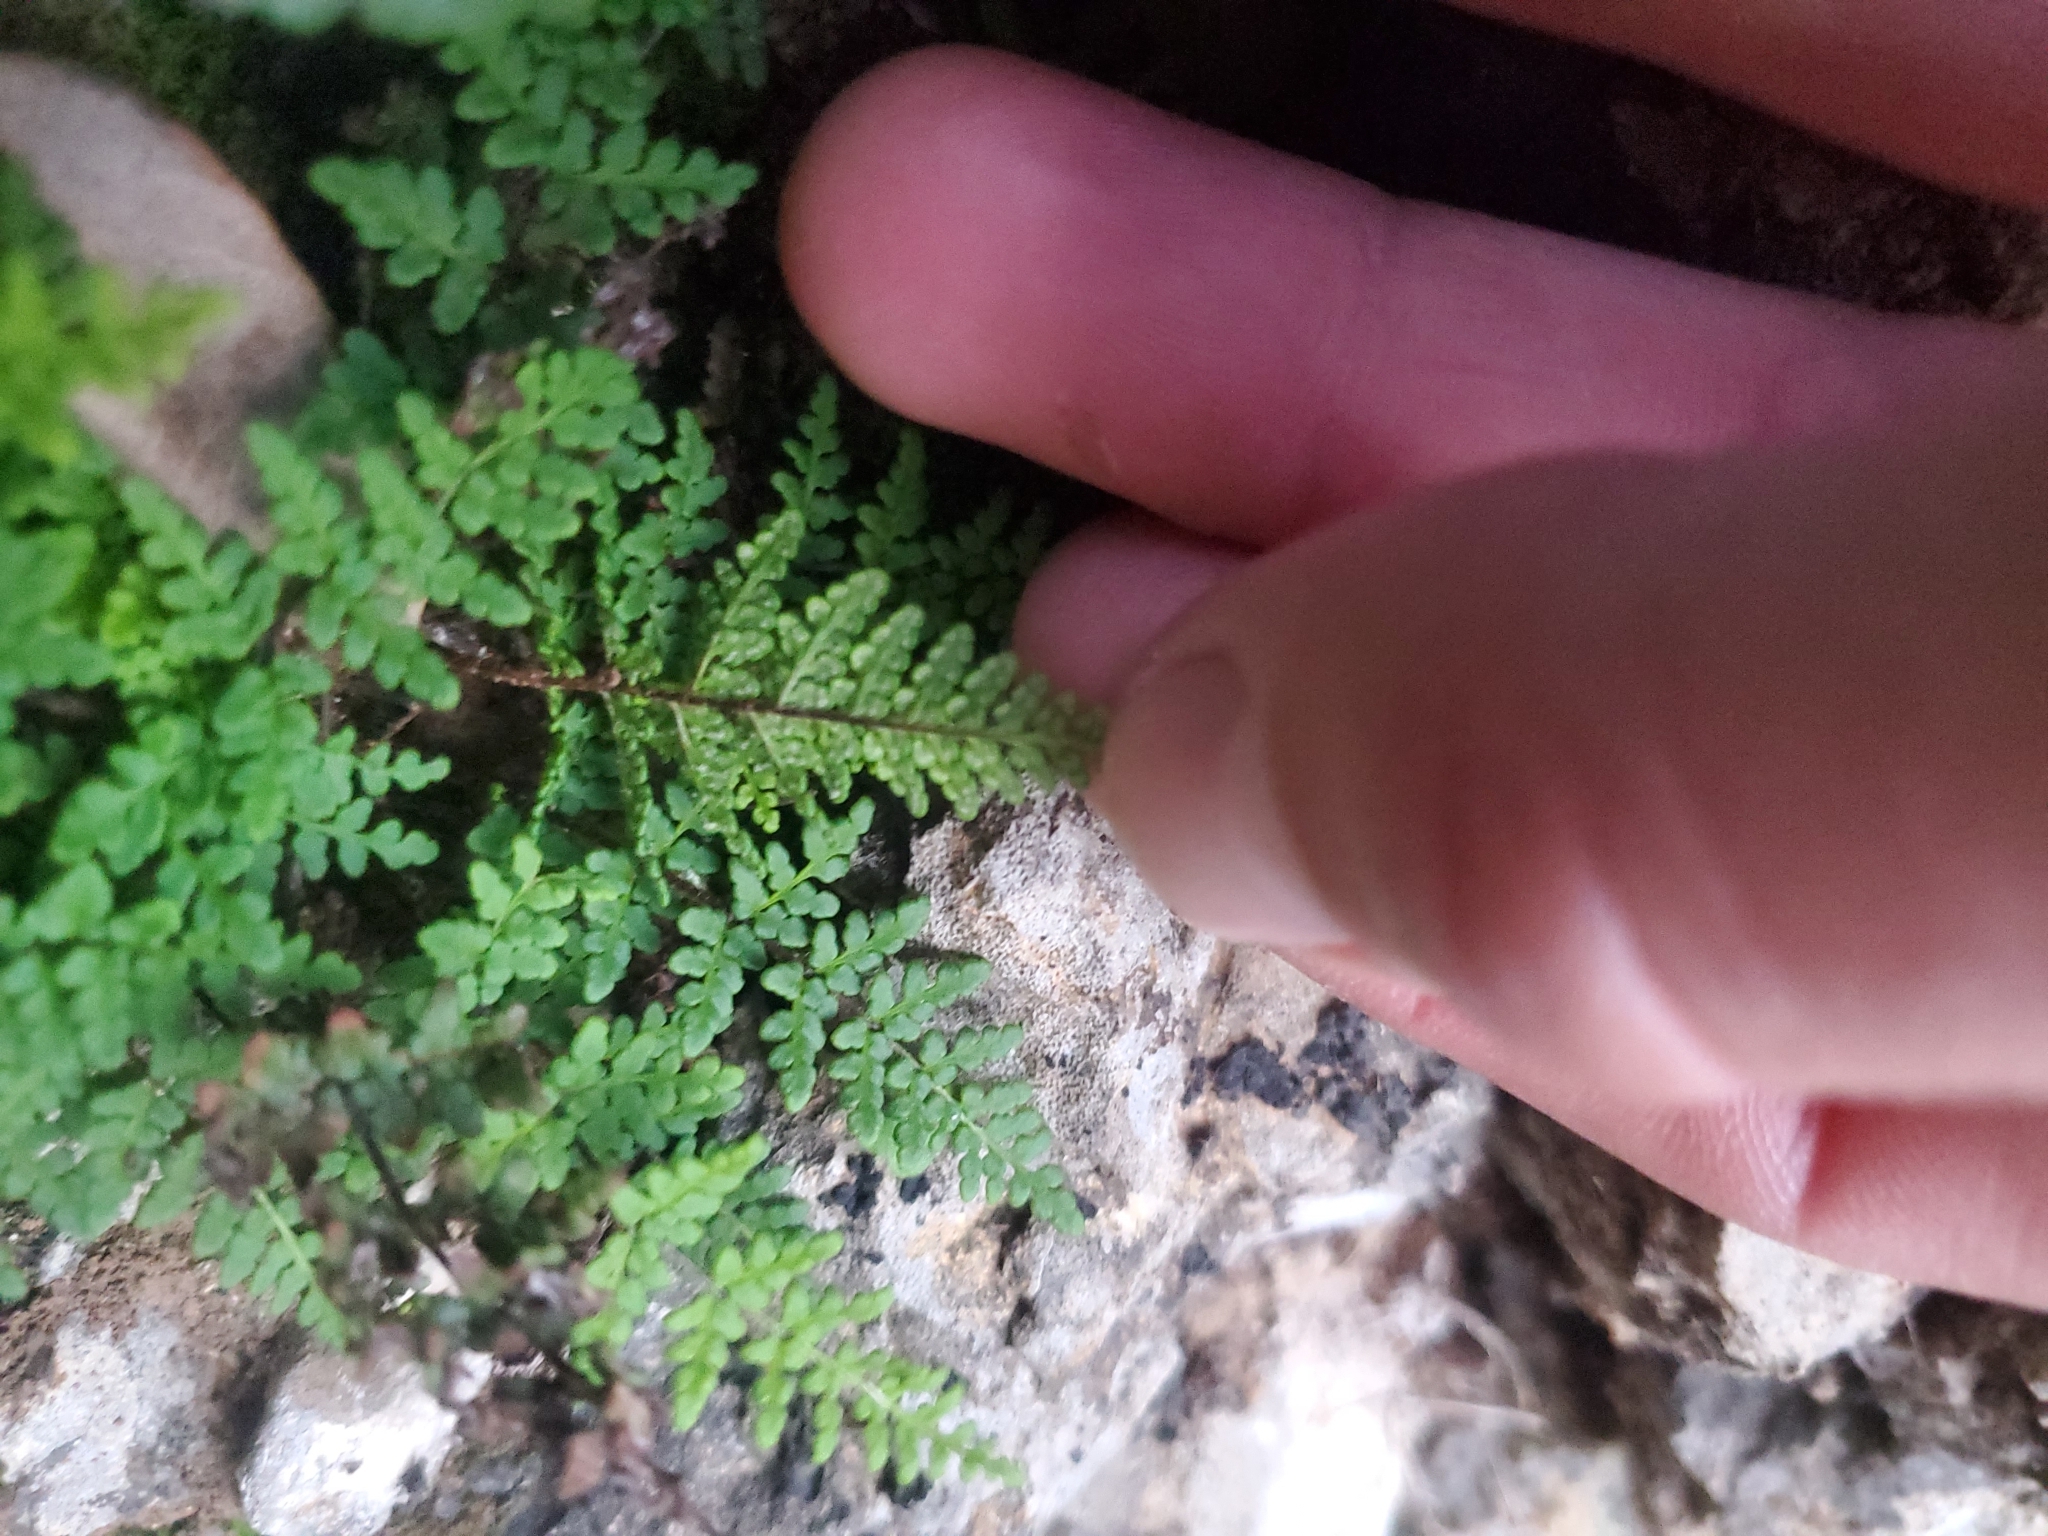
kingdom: Plantae
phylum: Tracheophyta
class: Polypodiopsida
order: Polypodiales
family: Pteridaceae
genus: Oeosporangium
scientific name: Oeosporangium pteridioides
